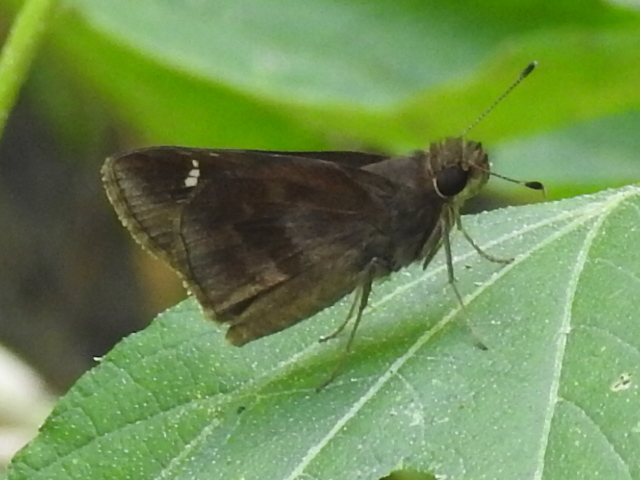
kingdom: Animalia
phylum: Arthropoda
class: Insecta
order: Lepidoptera
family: Hesperiidae
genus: Lerema
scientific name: Lerema accius
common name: Clouded skipper
